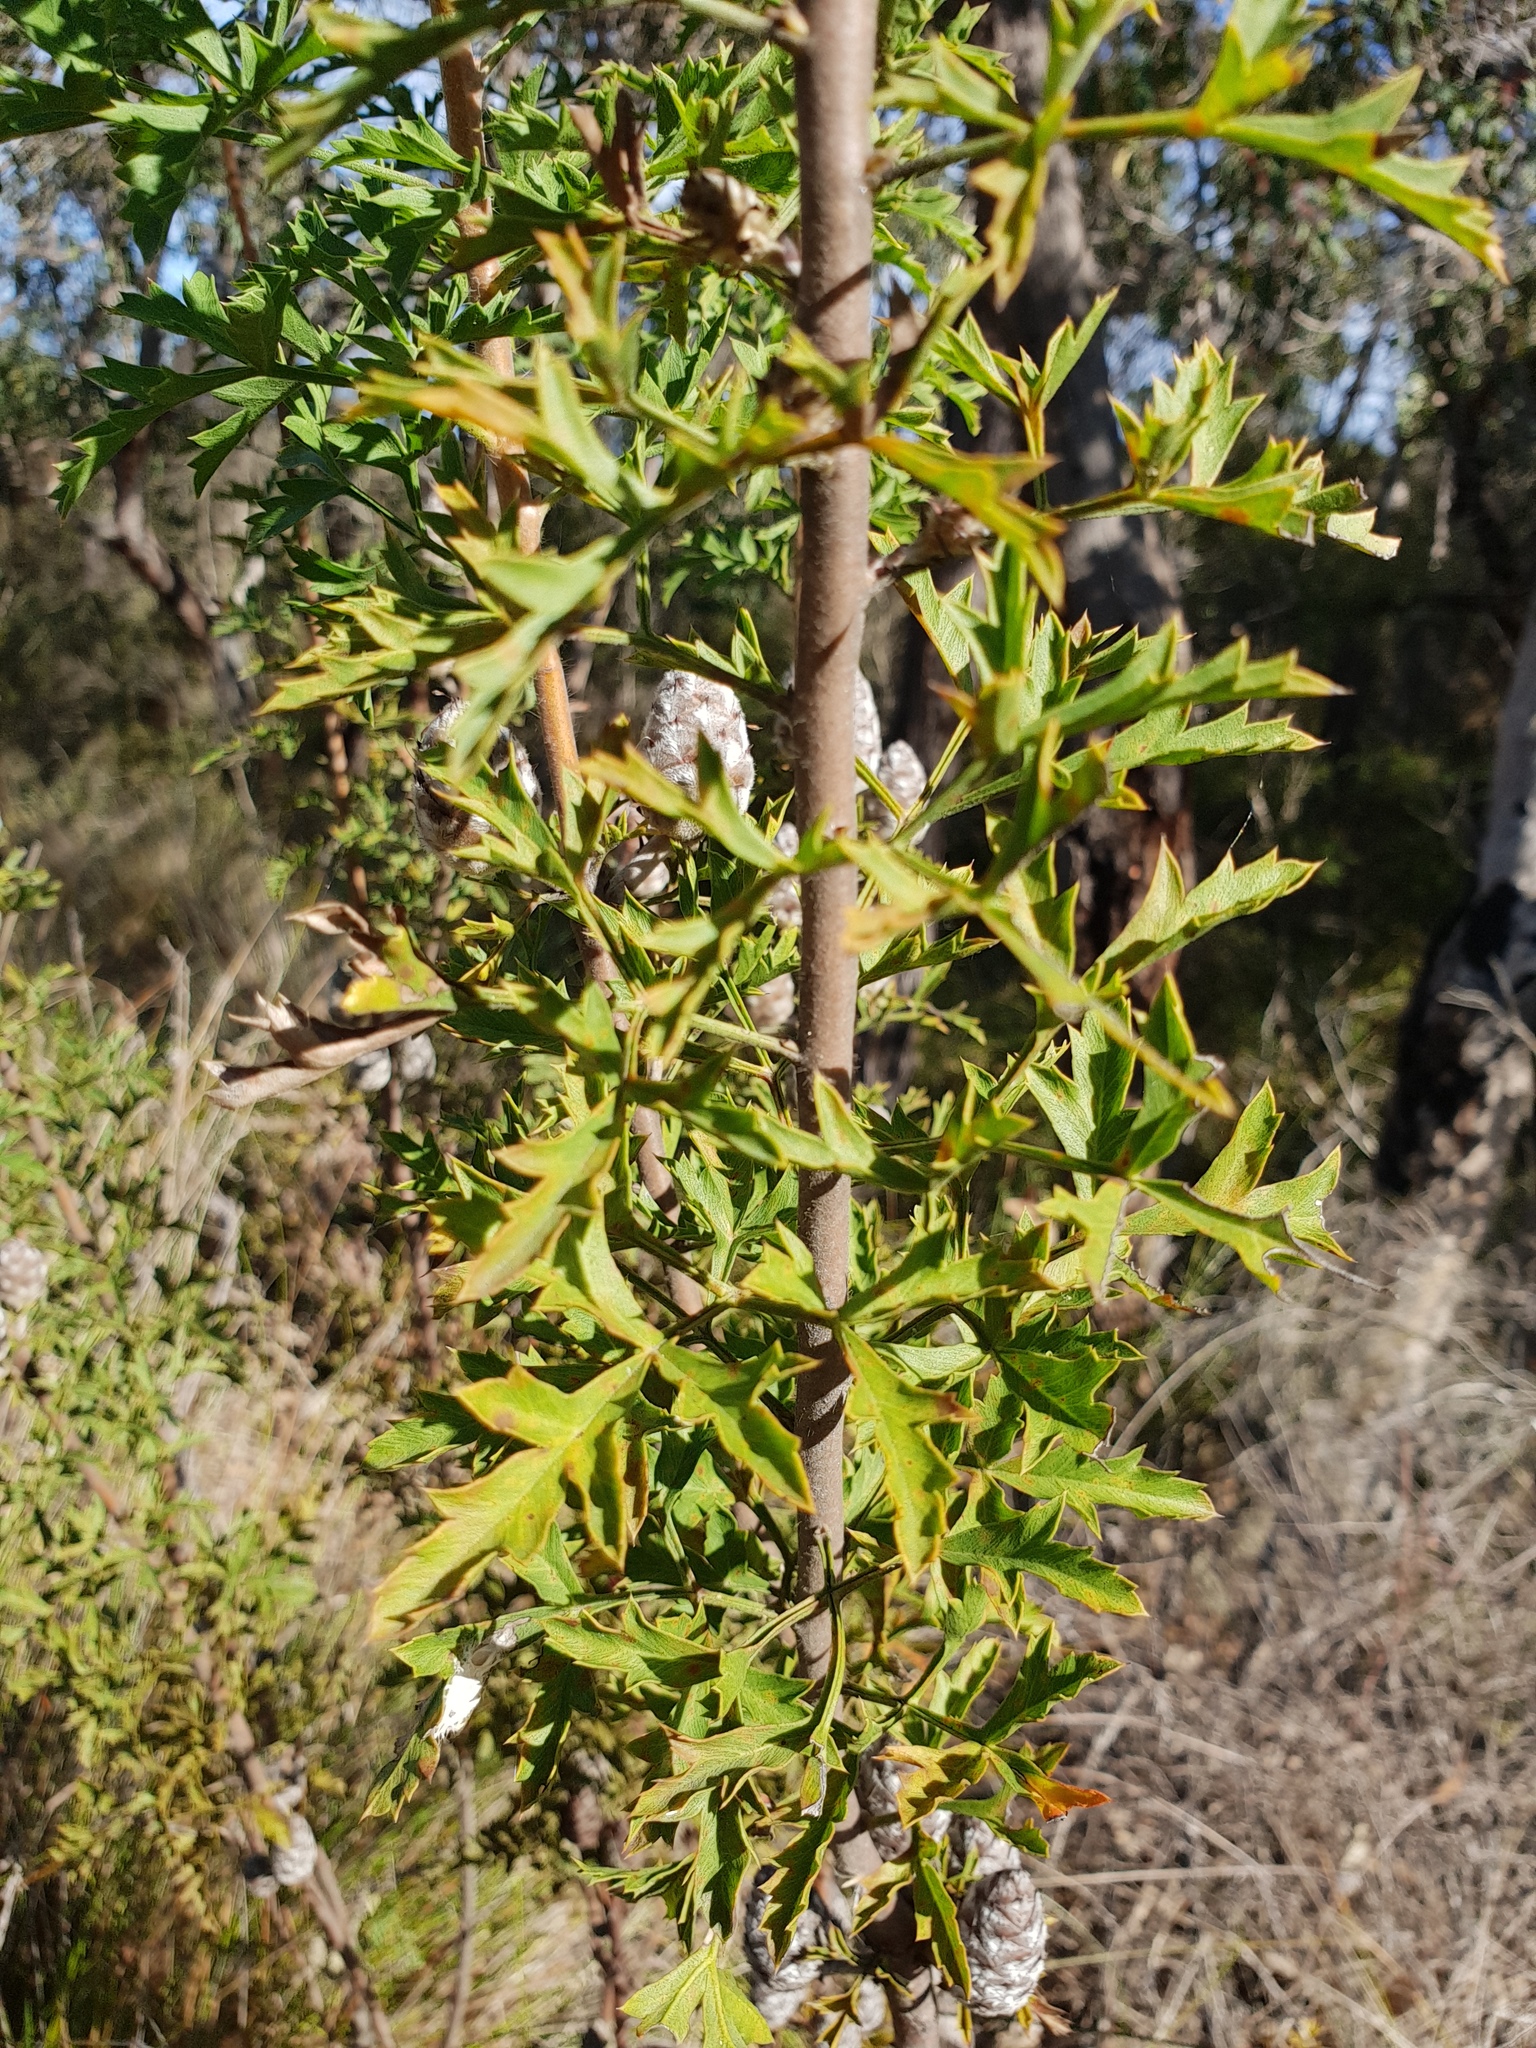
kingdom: Plantae
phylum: Tracheophyta
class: Magnoliopsida
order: Proteales
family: Proteaceae
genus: Petrophile
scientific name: Petrophile diversifolia
